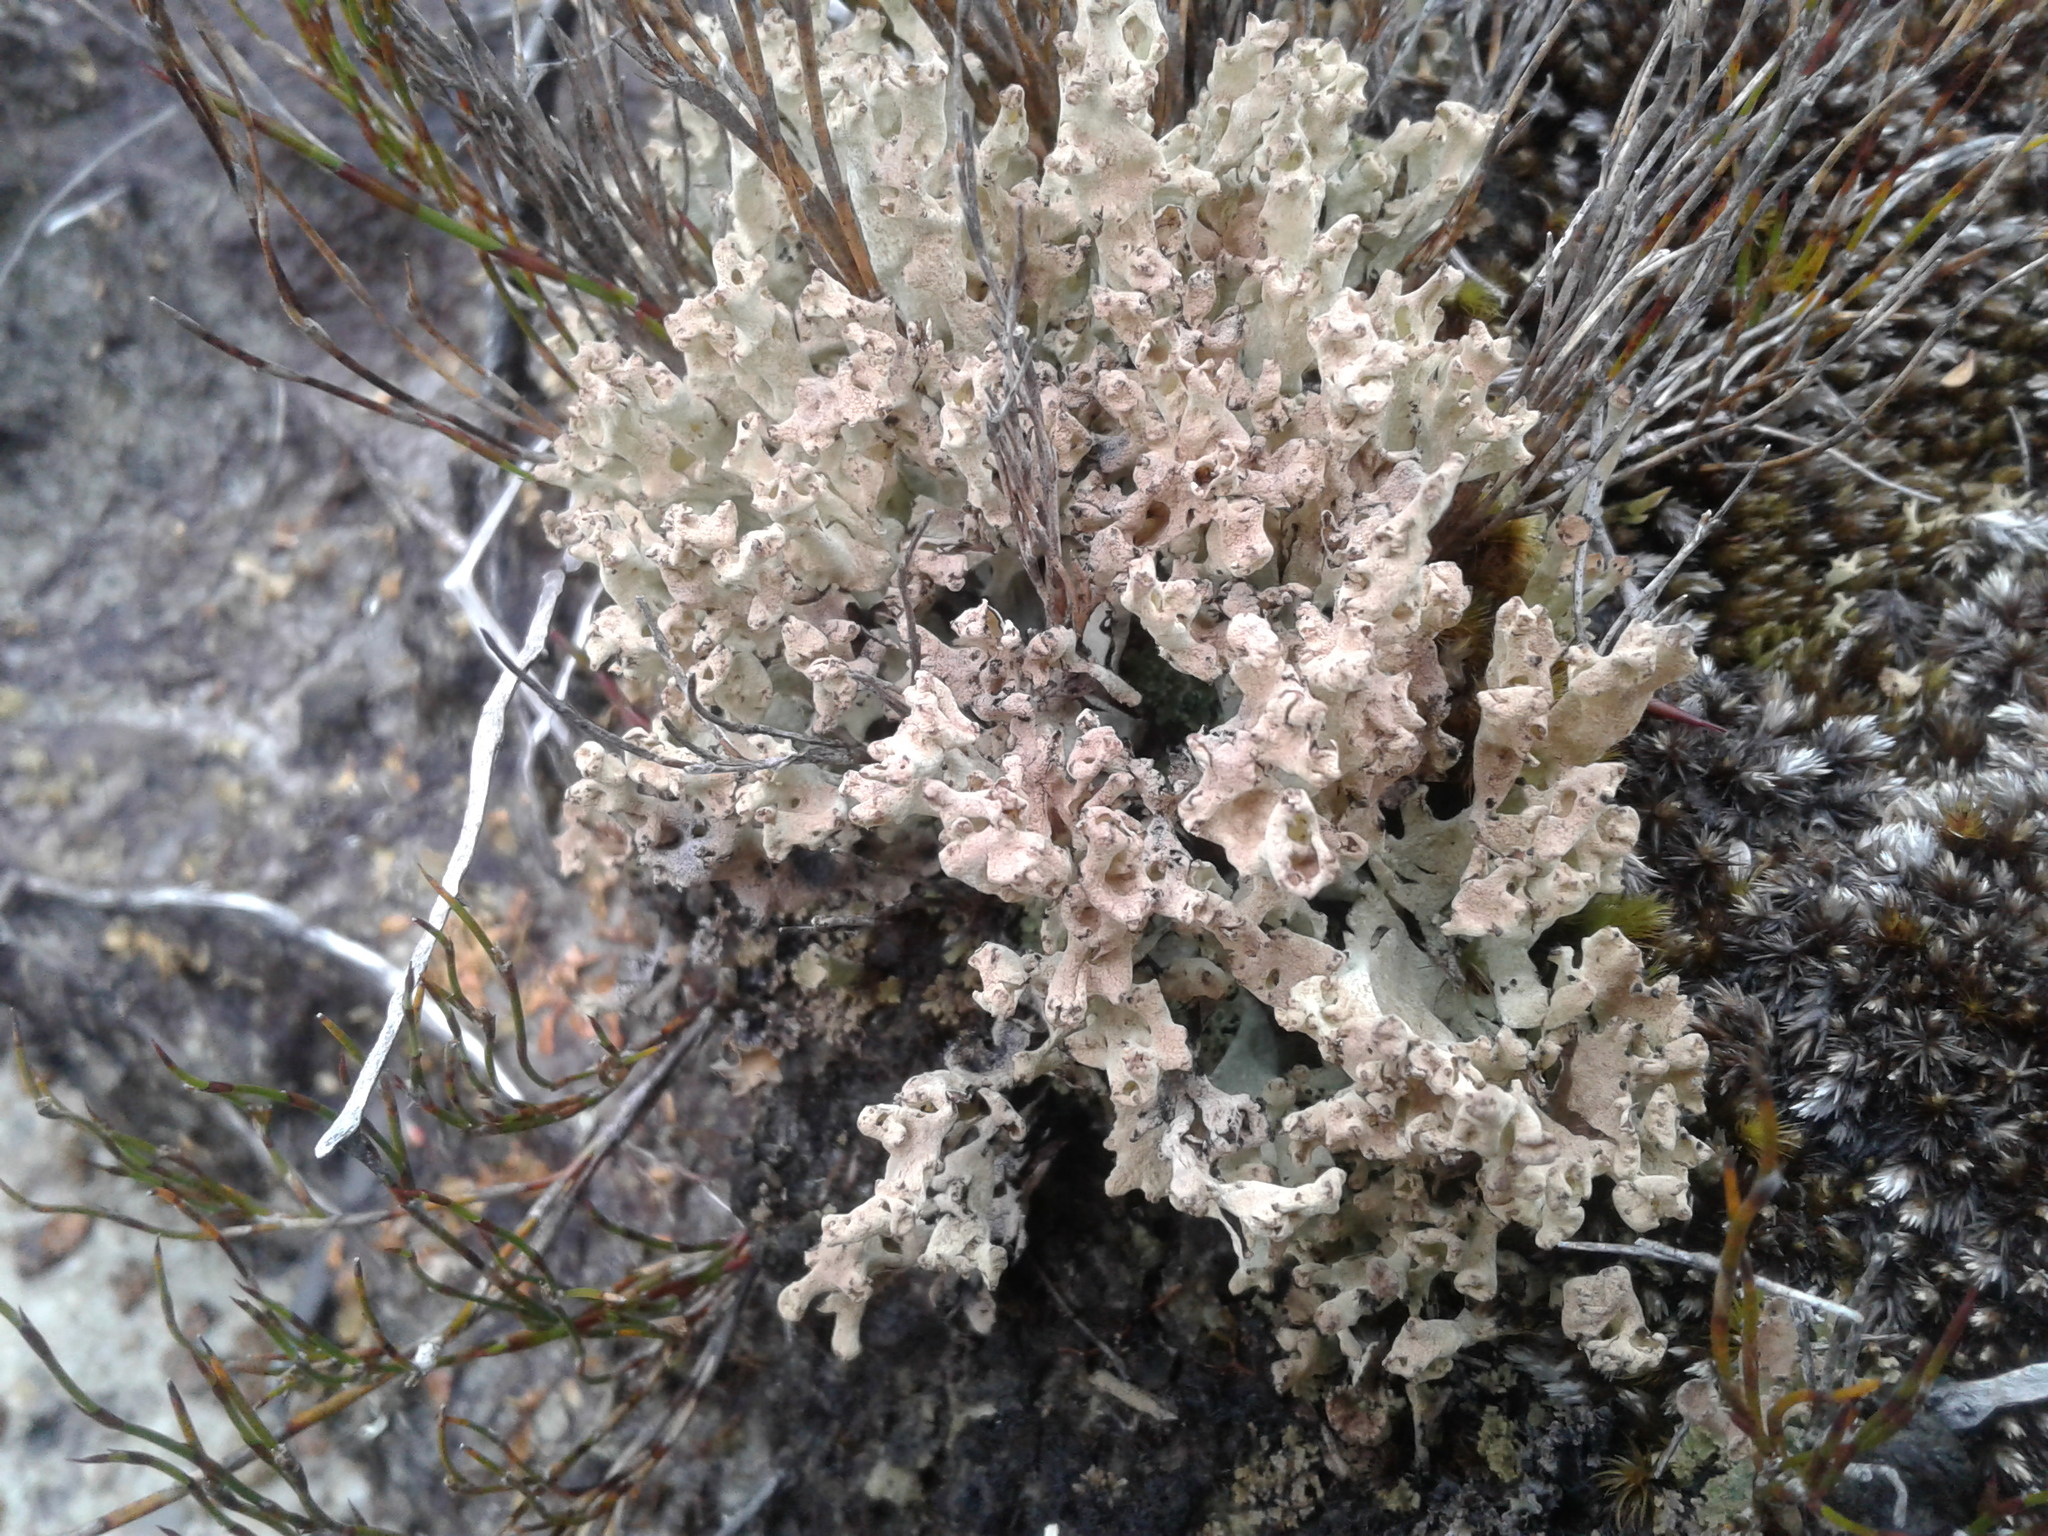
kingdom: Fungi
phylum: Ascomycota
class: Lecanoromycetes
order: Lecanorales
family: Cladoniaceae
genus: Cladonia
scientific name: Cladonia
